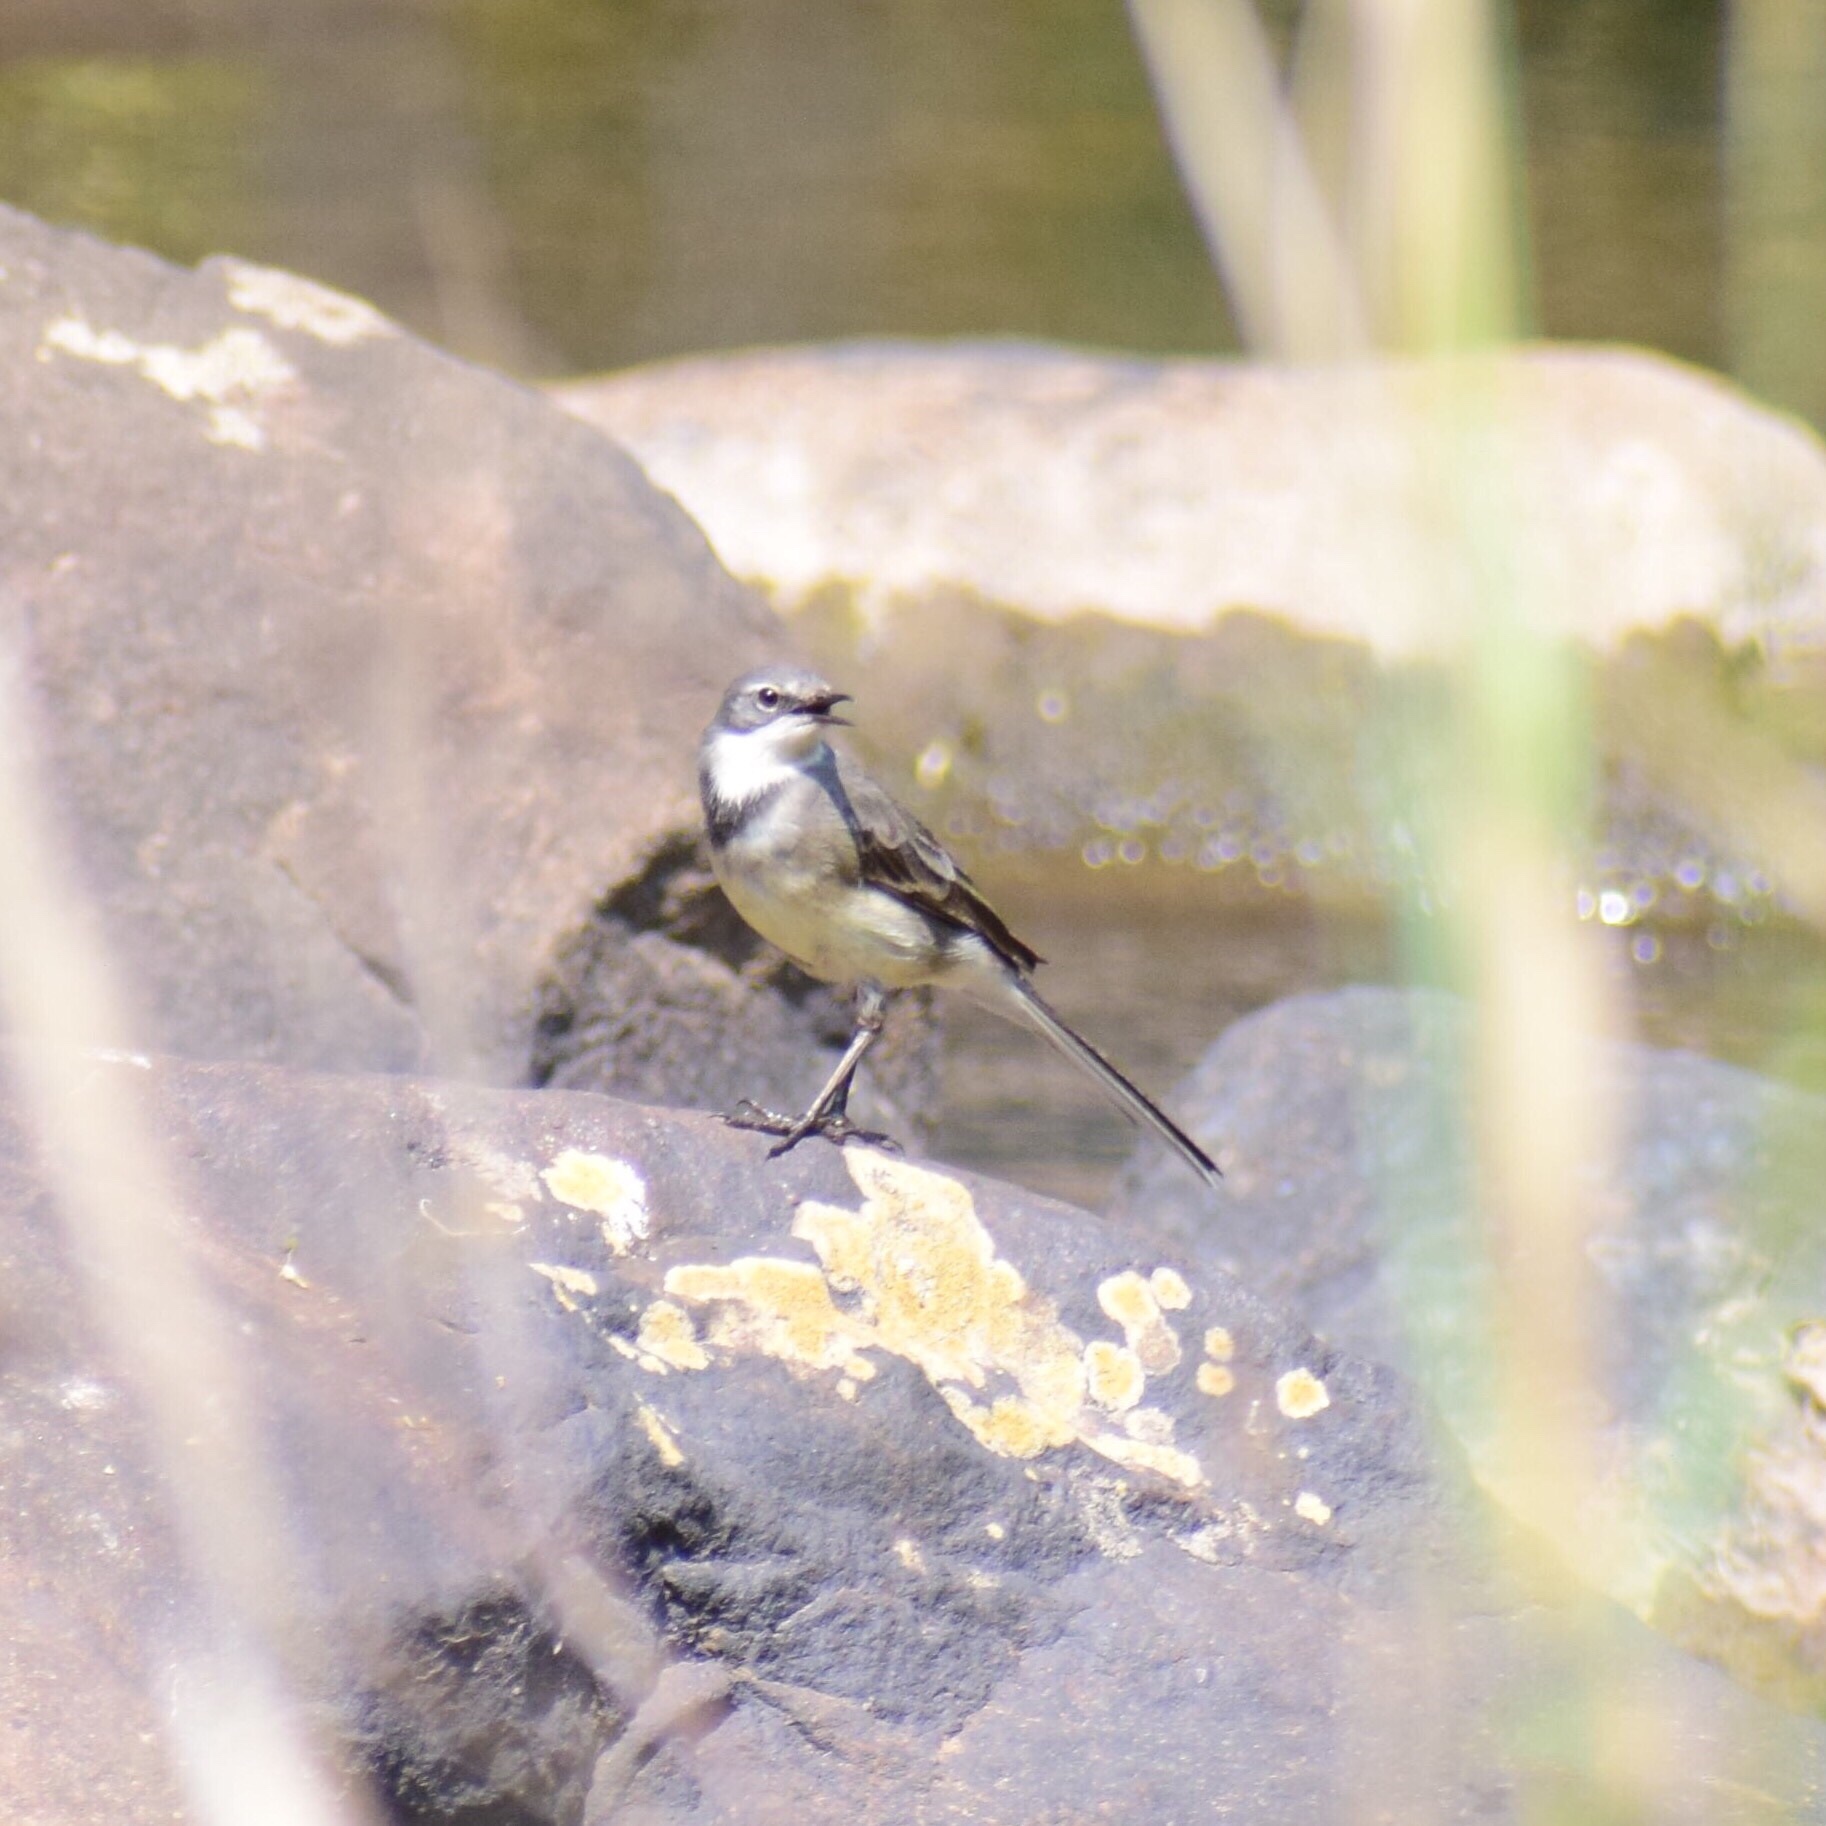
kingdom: Animalia
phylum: Chordata
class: Aves
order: Passeriformes
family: Motacillidae
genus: Motacilla
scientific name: Motacilla capensis
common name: Cape wagtail
